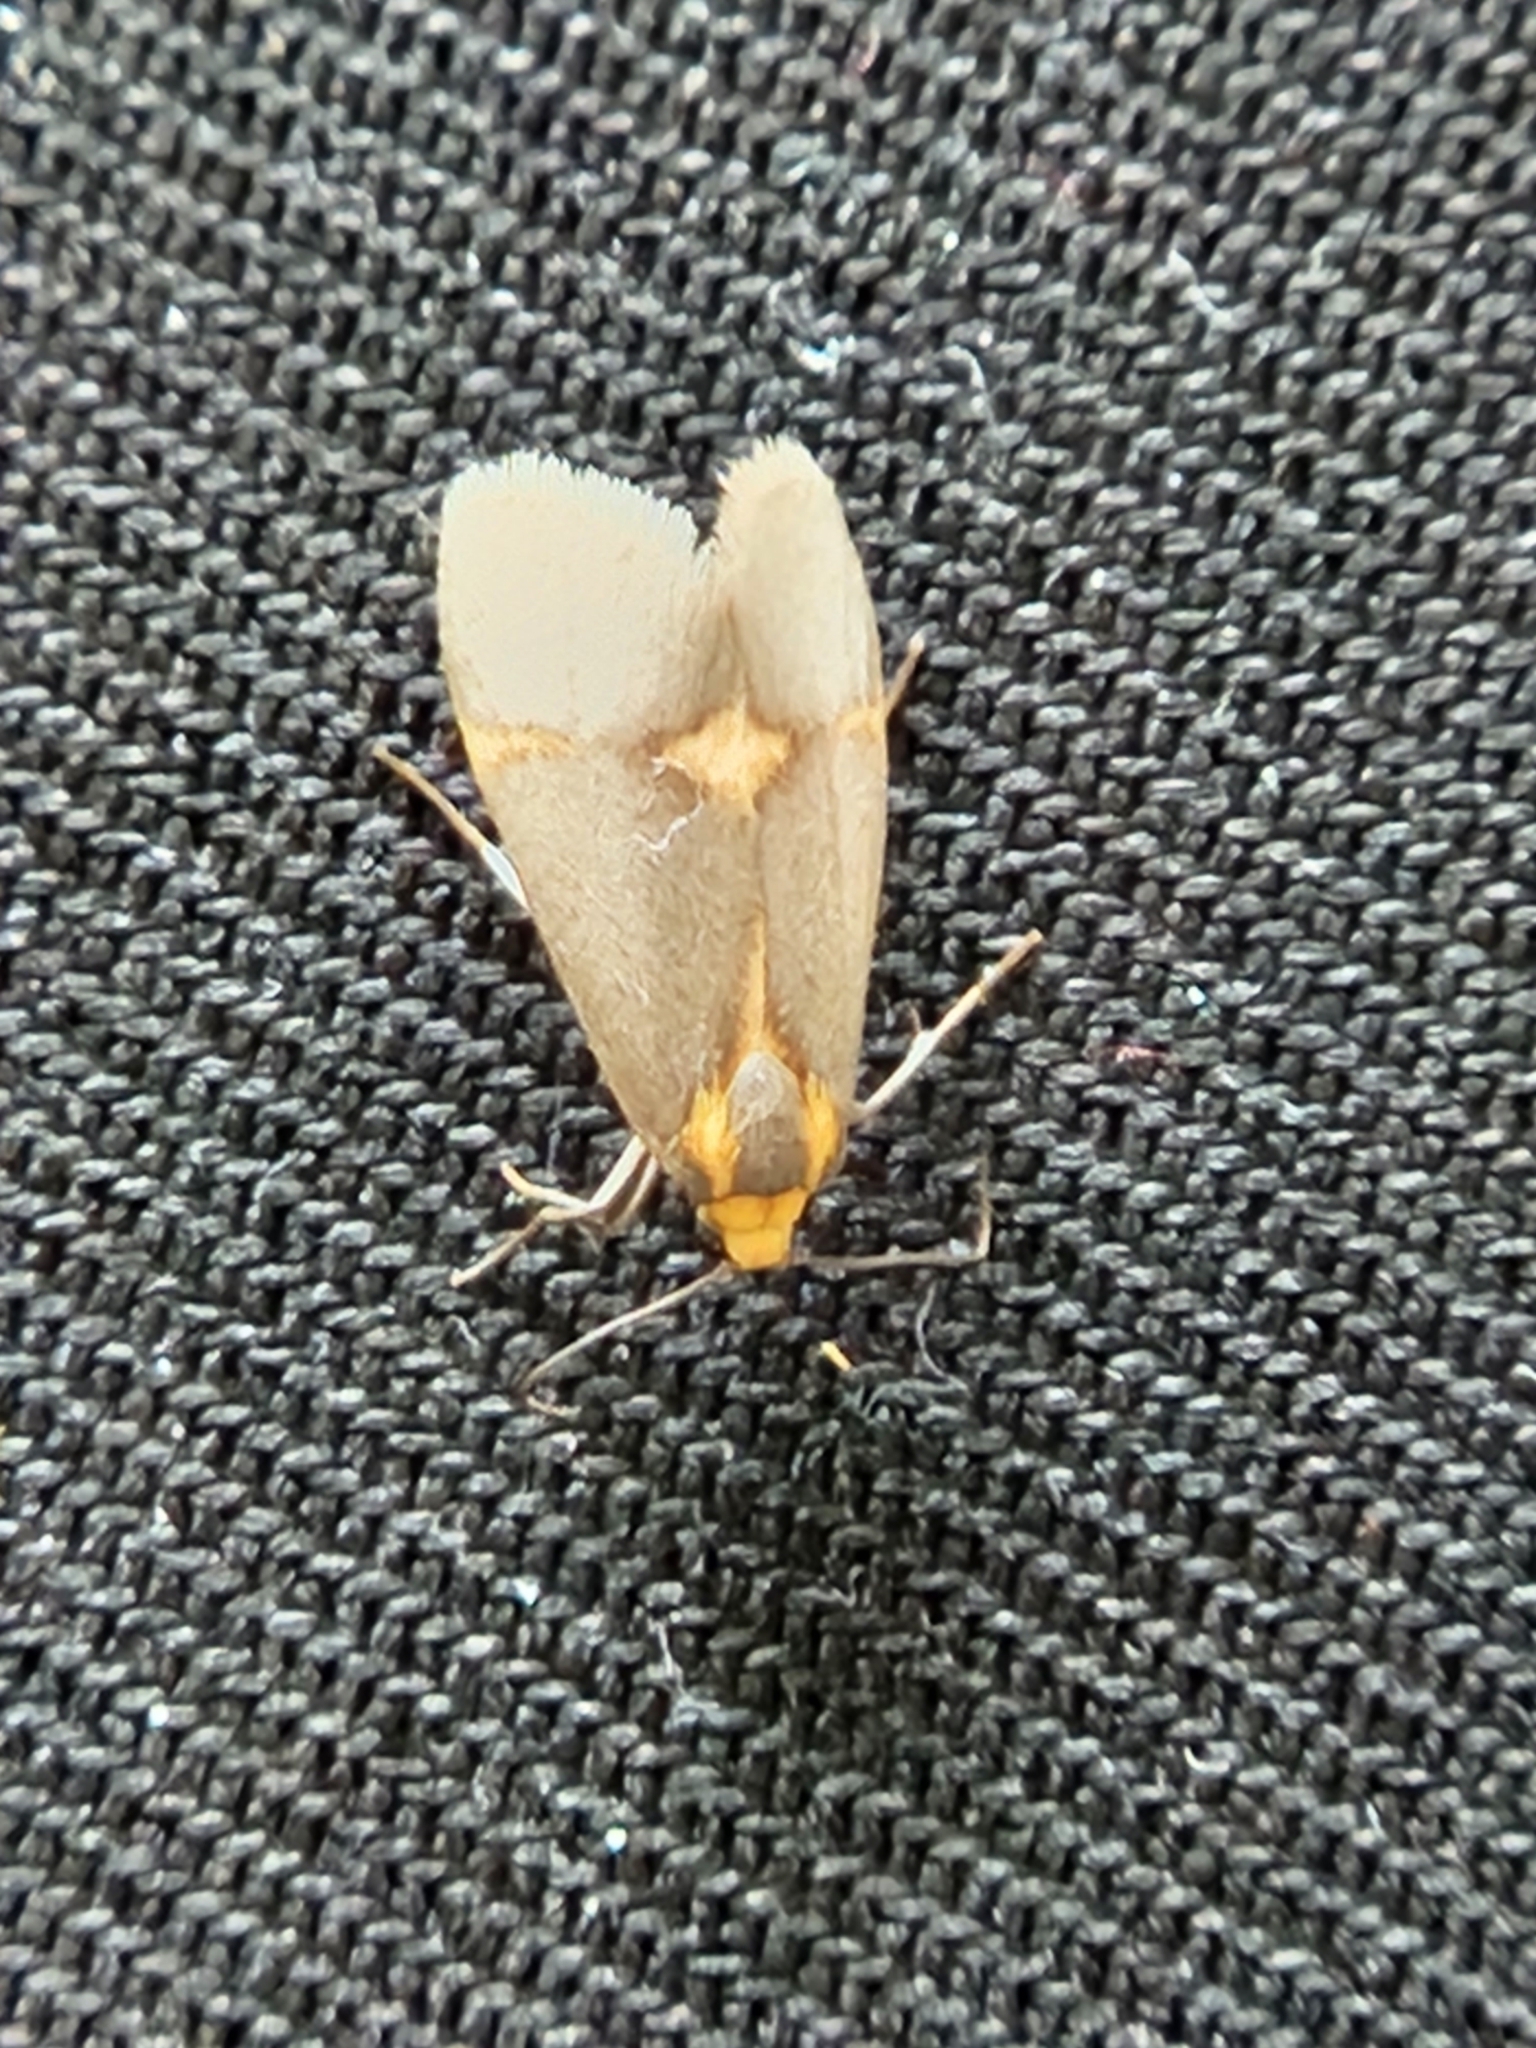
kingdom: Animalia
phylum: Arthropoda
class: Insecta
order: Lepidoptera
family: Erebidae
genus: Cisthene
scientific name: Cisthene tenuifascia
